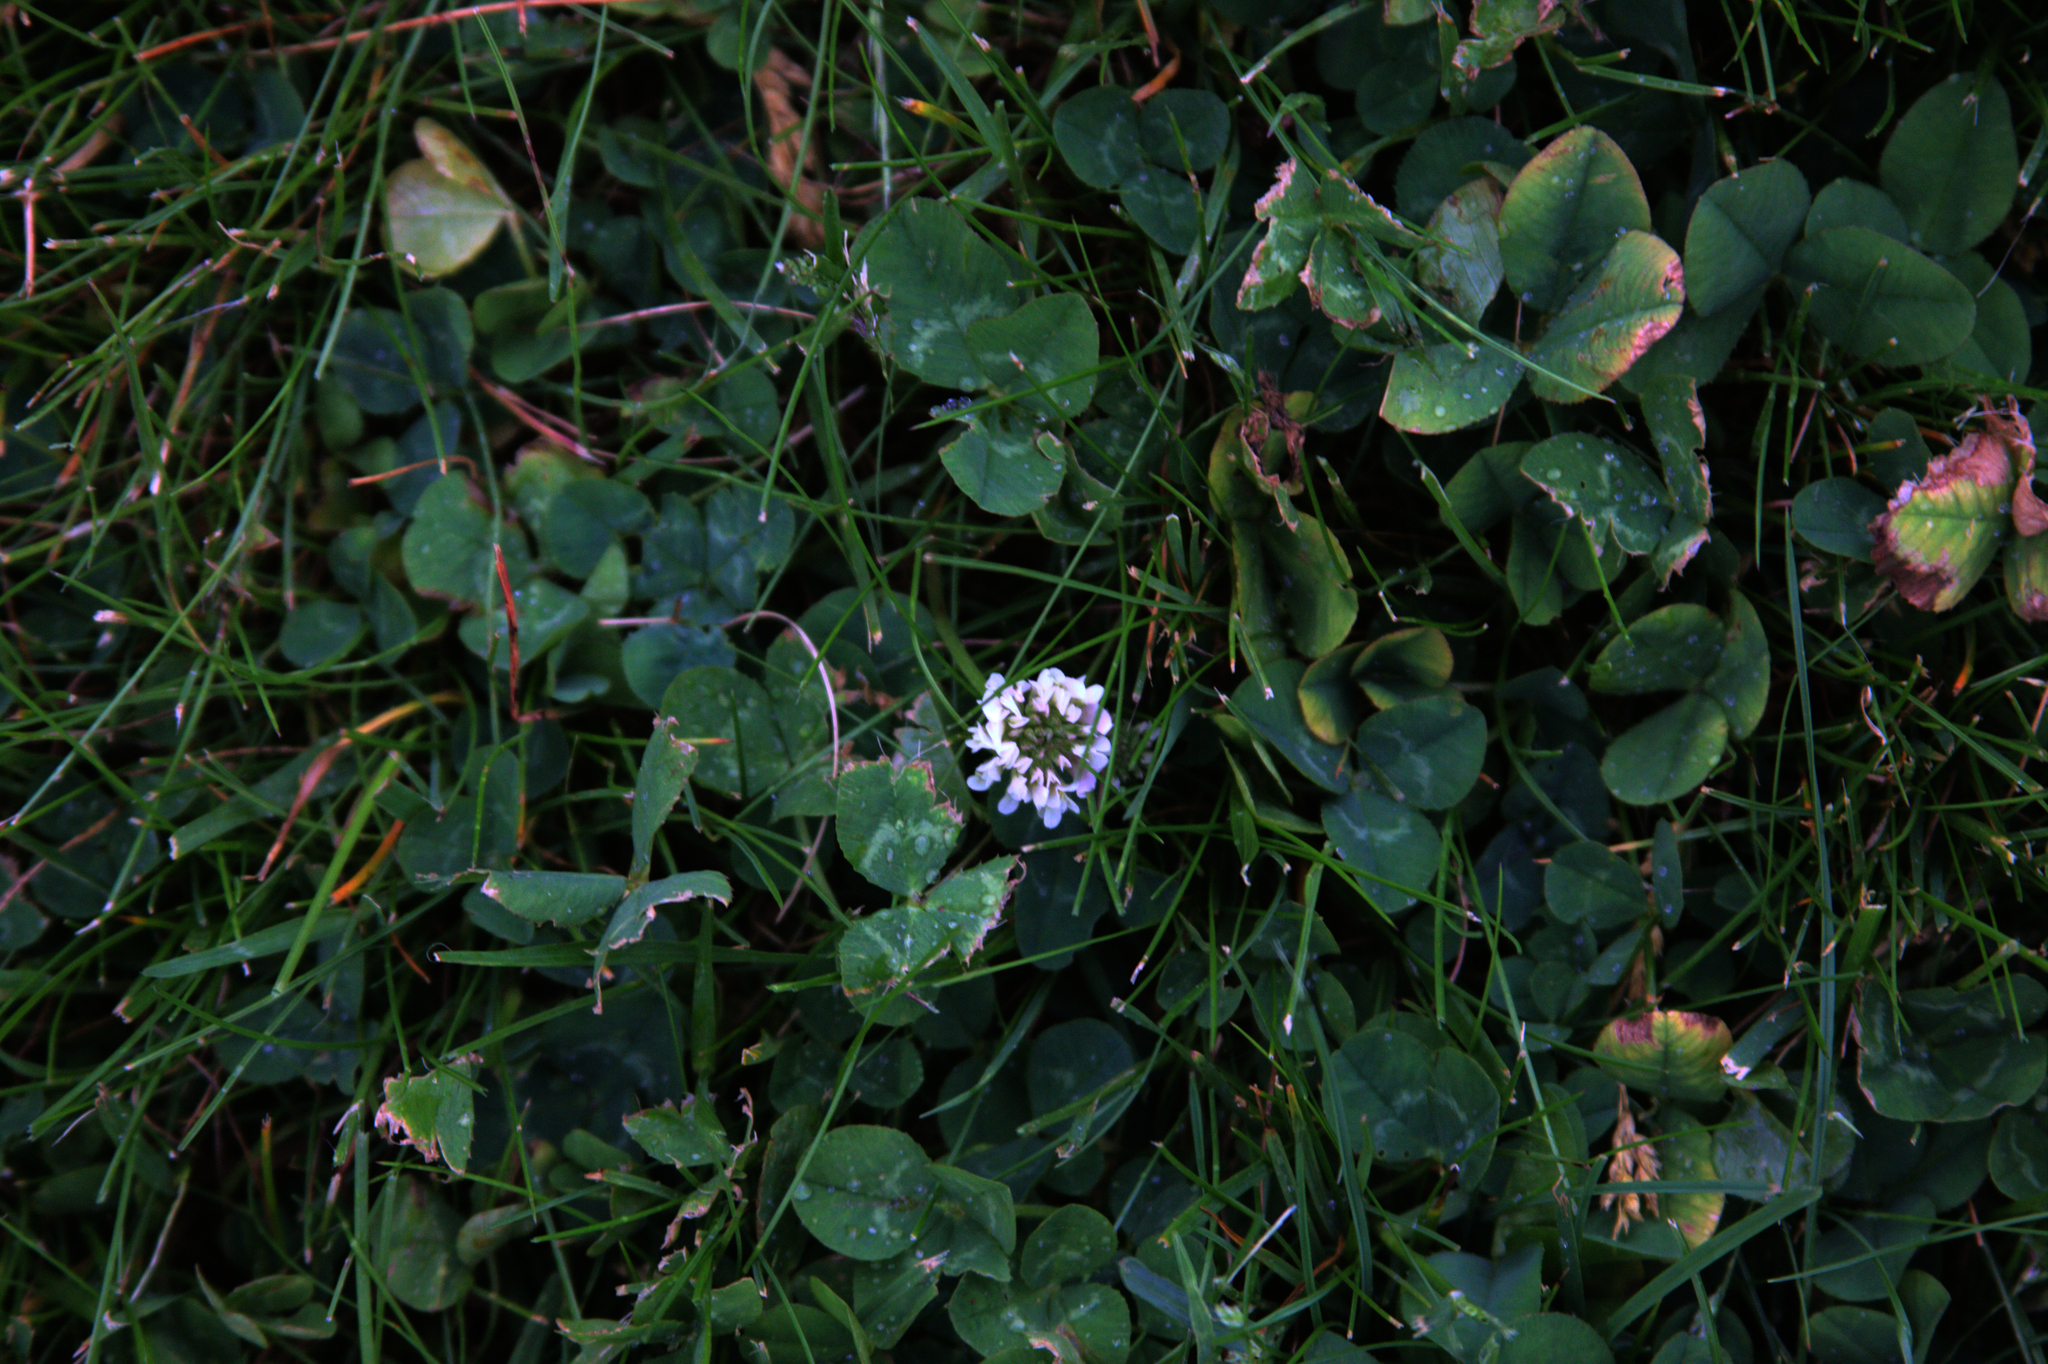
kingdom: Plantae
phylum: Tracheophyta
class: Magnoliopsida
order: Fabales
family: Fabaceae
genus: Trifolium
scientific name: Trifolium repens
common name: White clover
